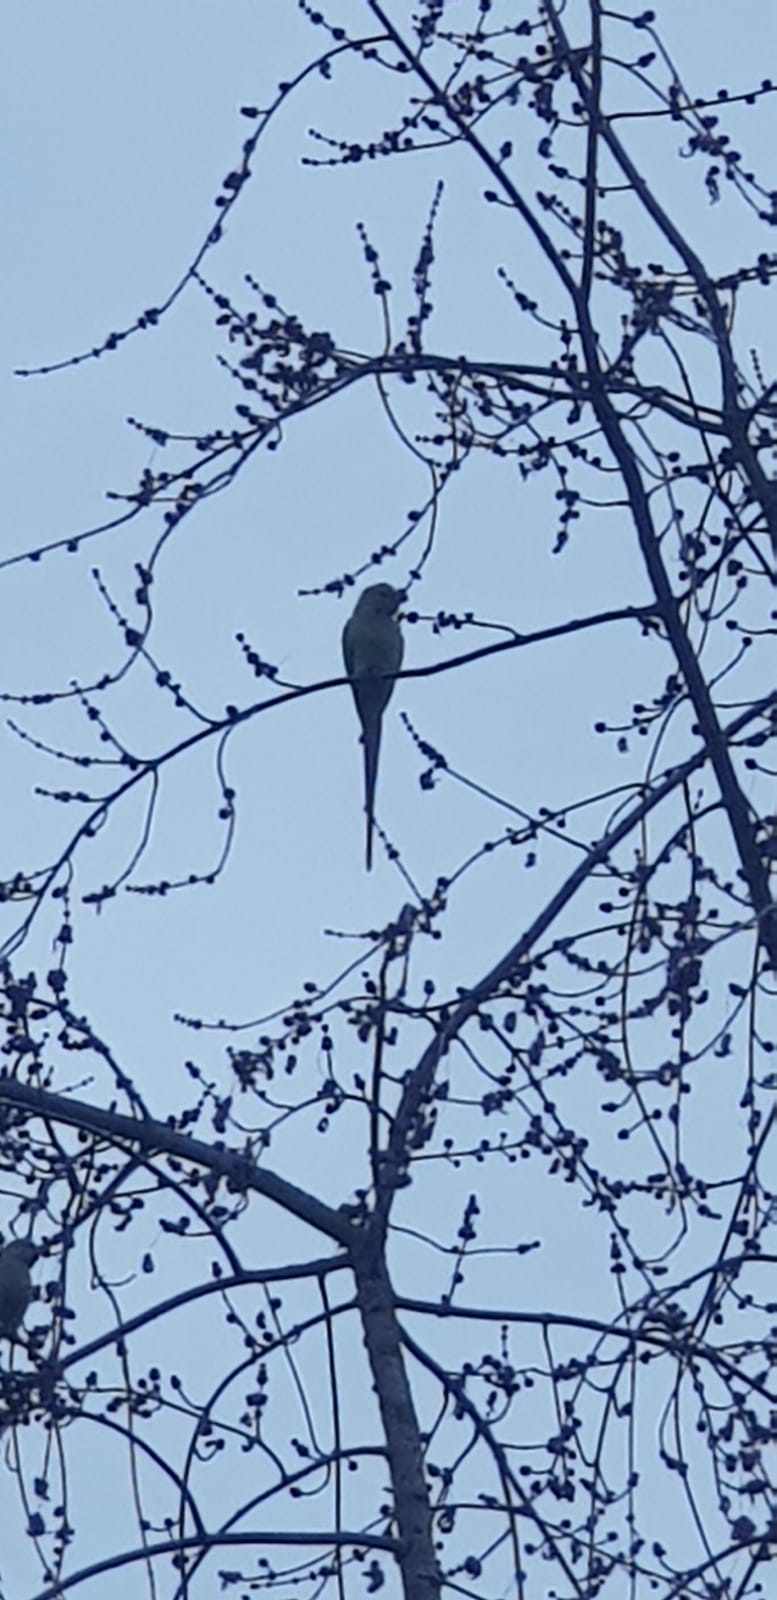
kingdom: Animalia
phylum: Chordata
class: Aves
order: Psittaciformes
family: Psittacidae
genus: Psittacula
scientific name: Psittacula krameri
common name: Rose-ringed parakeet
